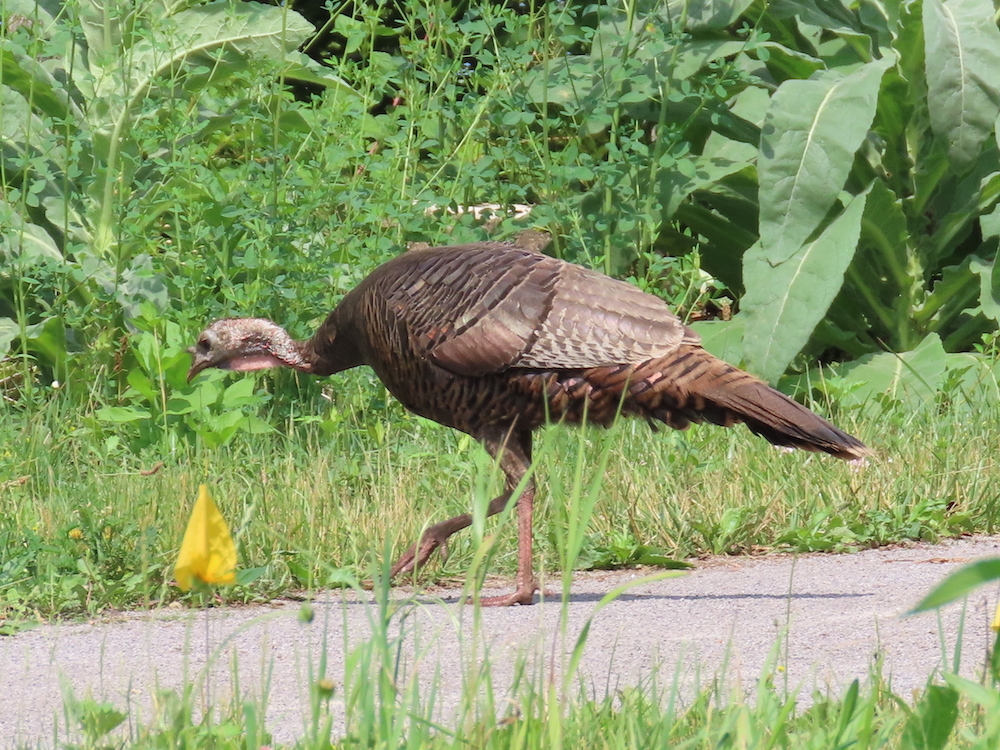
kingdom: Animalia
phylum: Chordata
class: Aves
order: Galliformes
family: Phasianidae
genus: Meleagris
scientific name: Meleagris gallopavo
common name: Wild turkey
